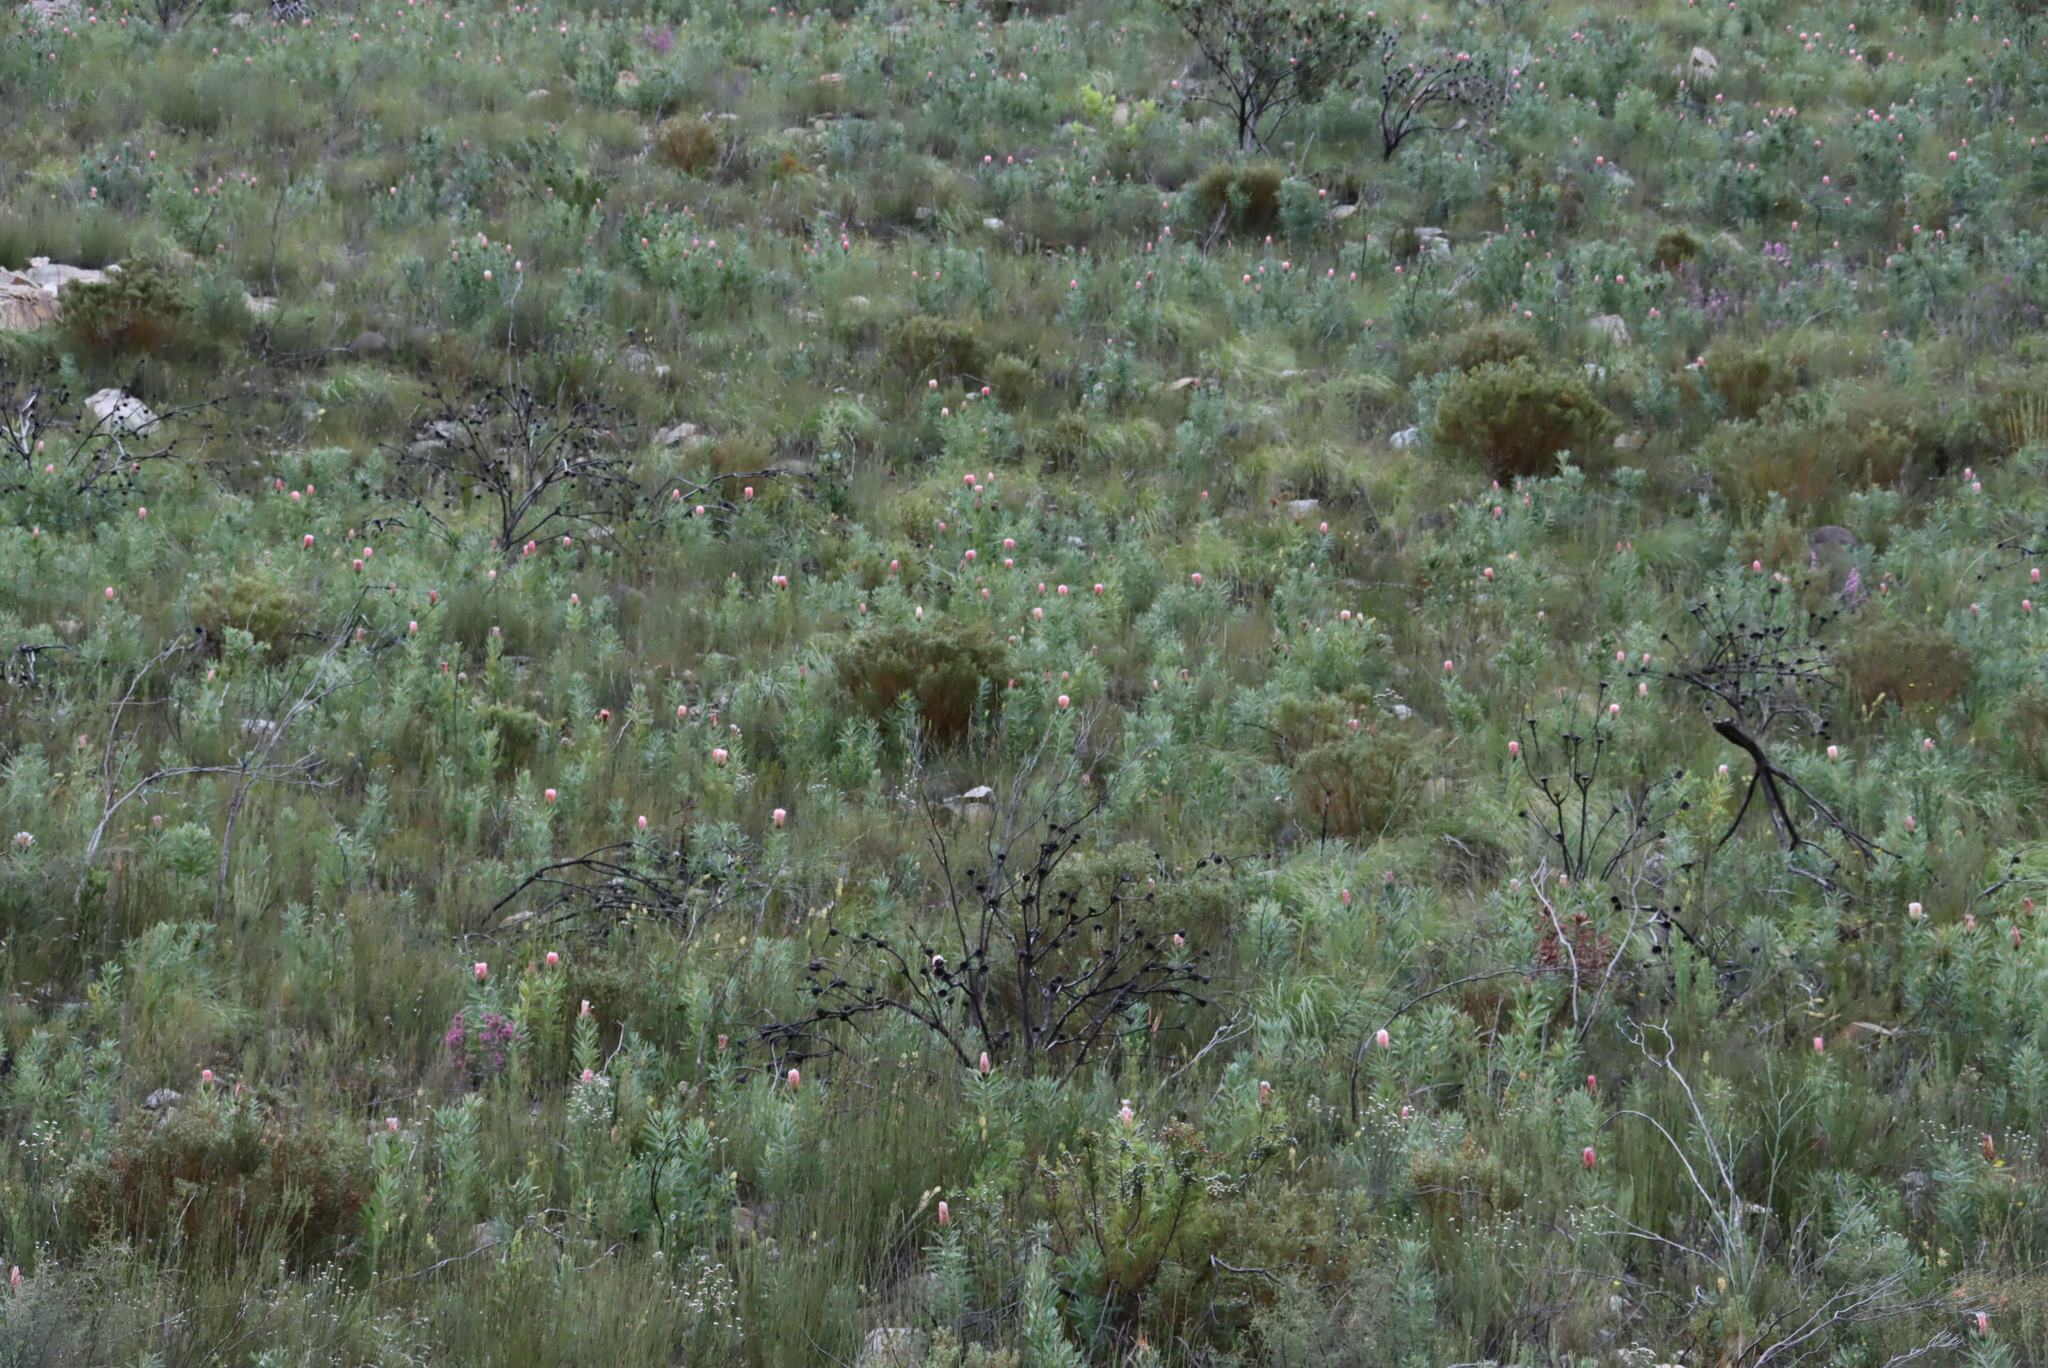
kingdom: Plantae
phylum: Tracheophyta
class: Magnoliopsida
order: Proteales
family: Proteaceae
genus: Protea
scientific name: Protea neriifolia
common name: Blue sugarbush
